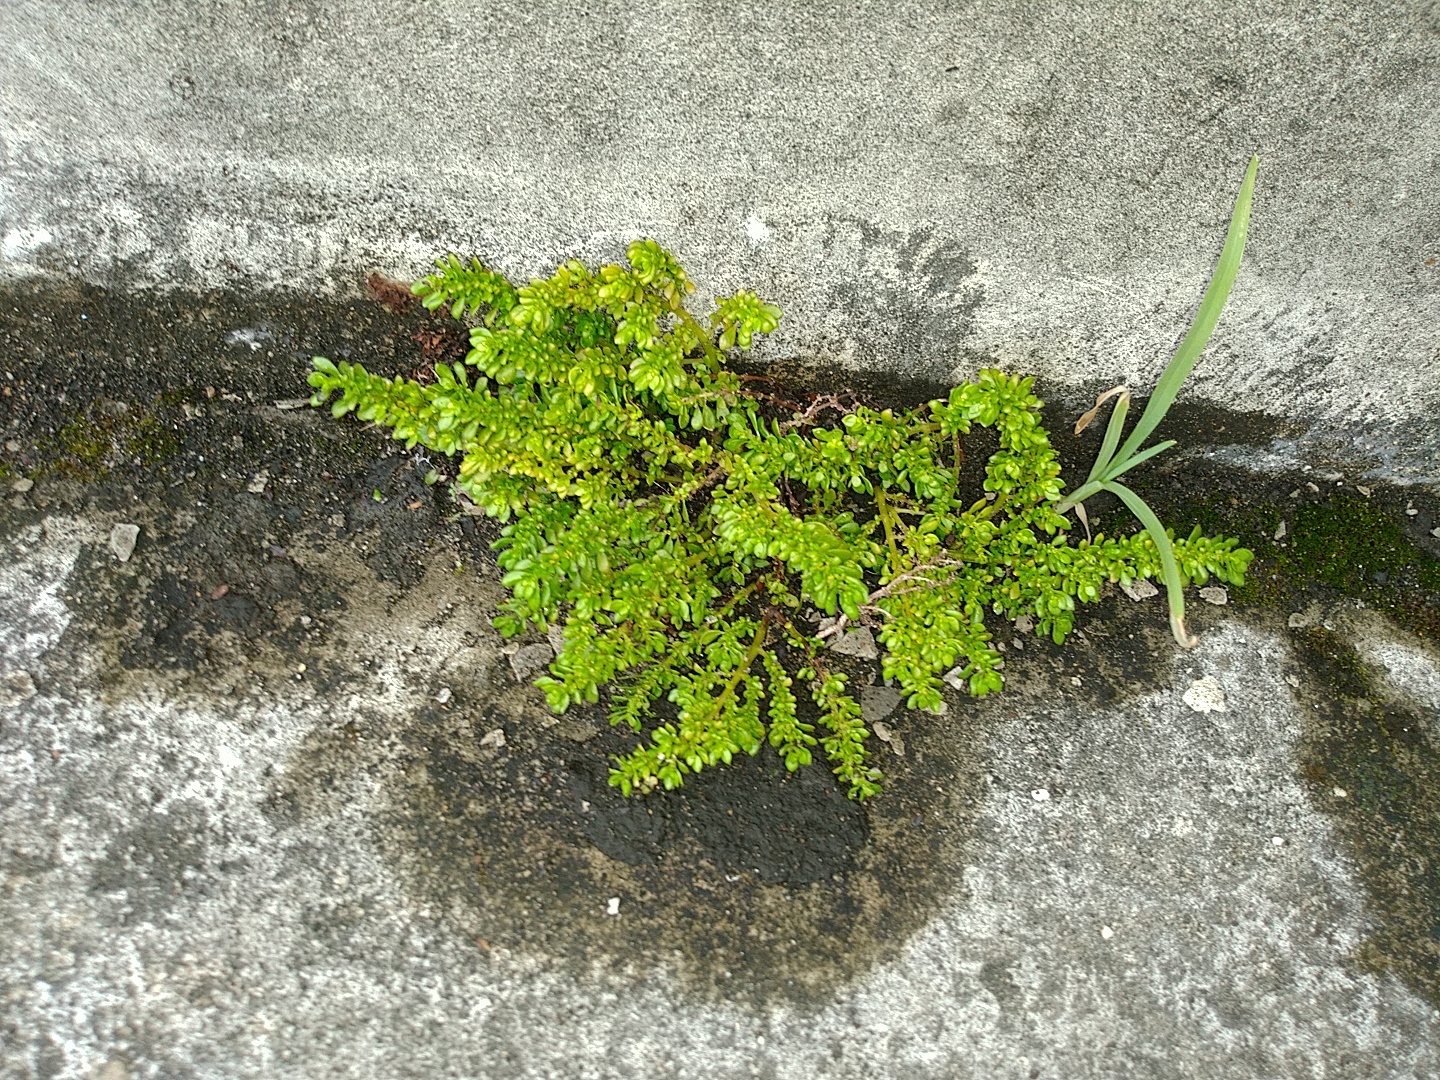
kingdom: Plantae
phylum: Tracheophyta
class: Magnoliopsida
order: Rosales
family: Urticaceae
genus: Pilea
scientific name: Pilea microphylla
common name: Artillery-plant
